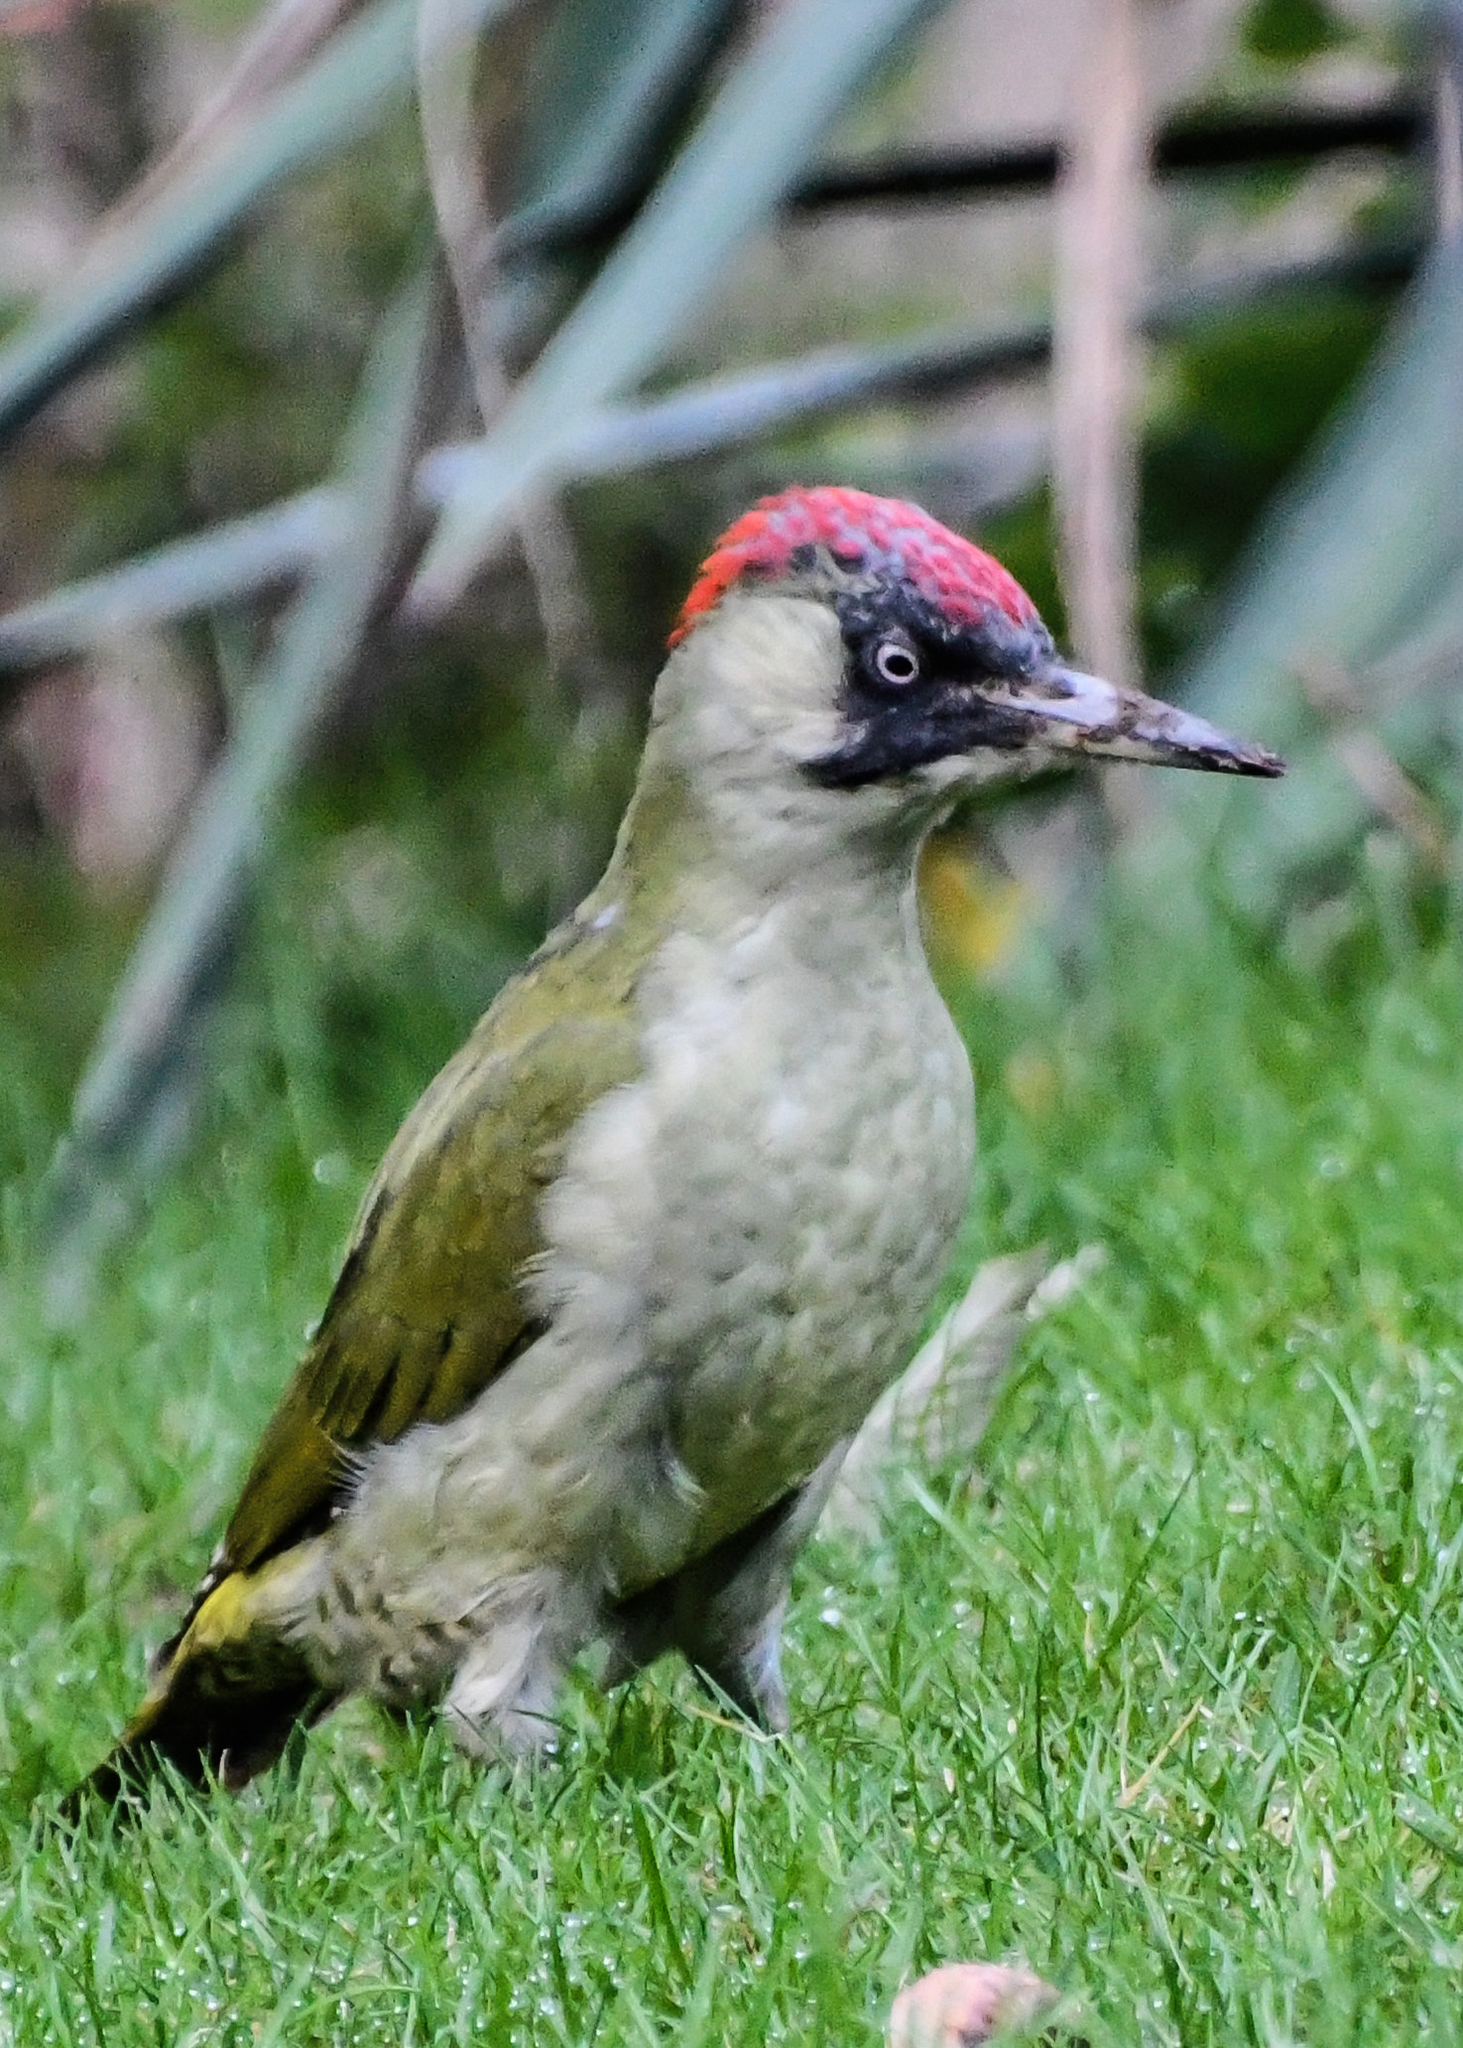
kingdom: Animalia
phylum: Chordata
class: Aves
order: Piciformes
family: Picidae
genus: Picus
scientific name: Picus viridis
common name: European green woodpecker
